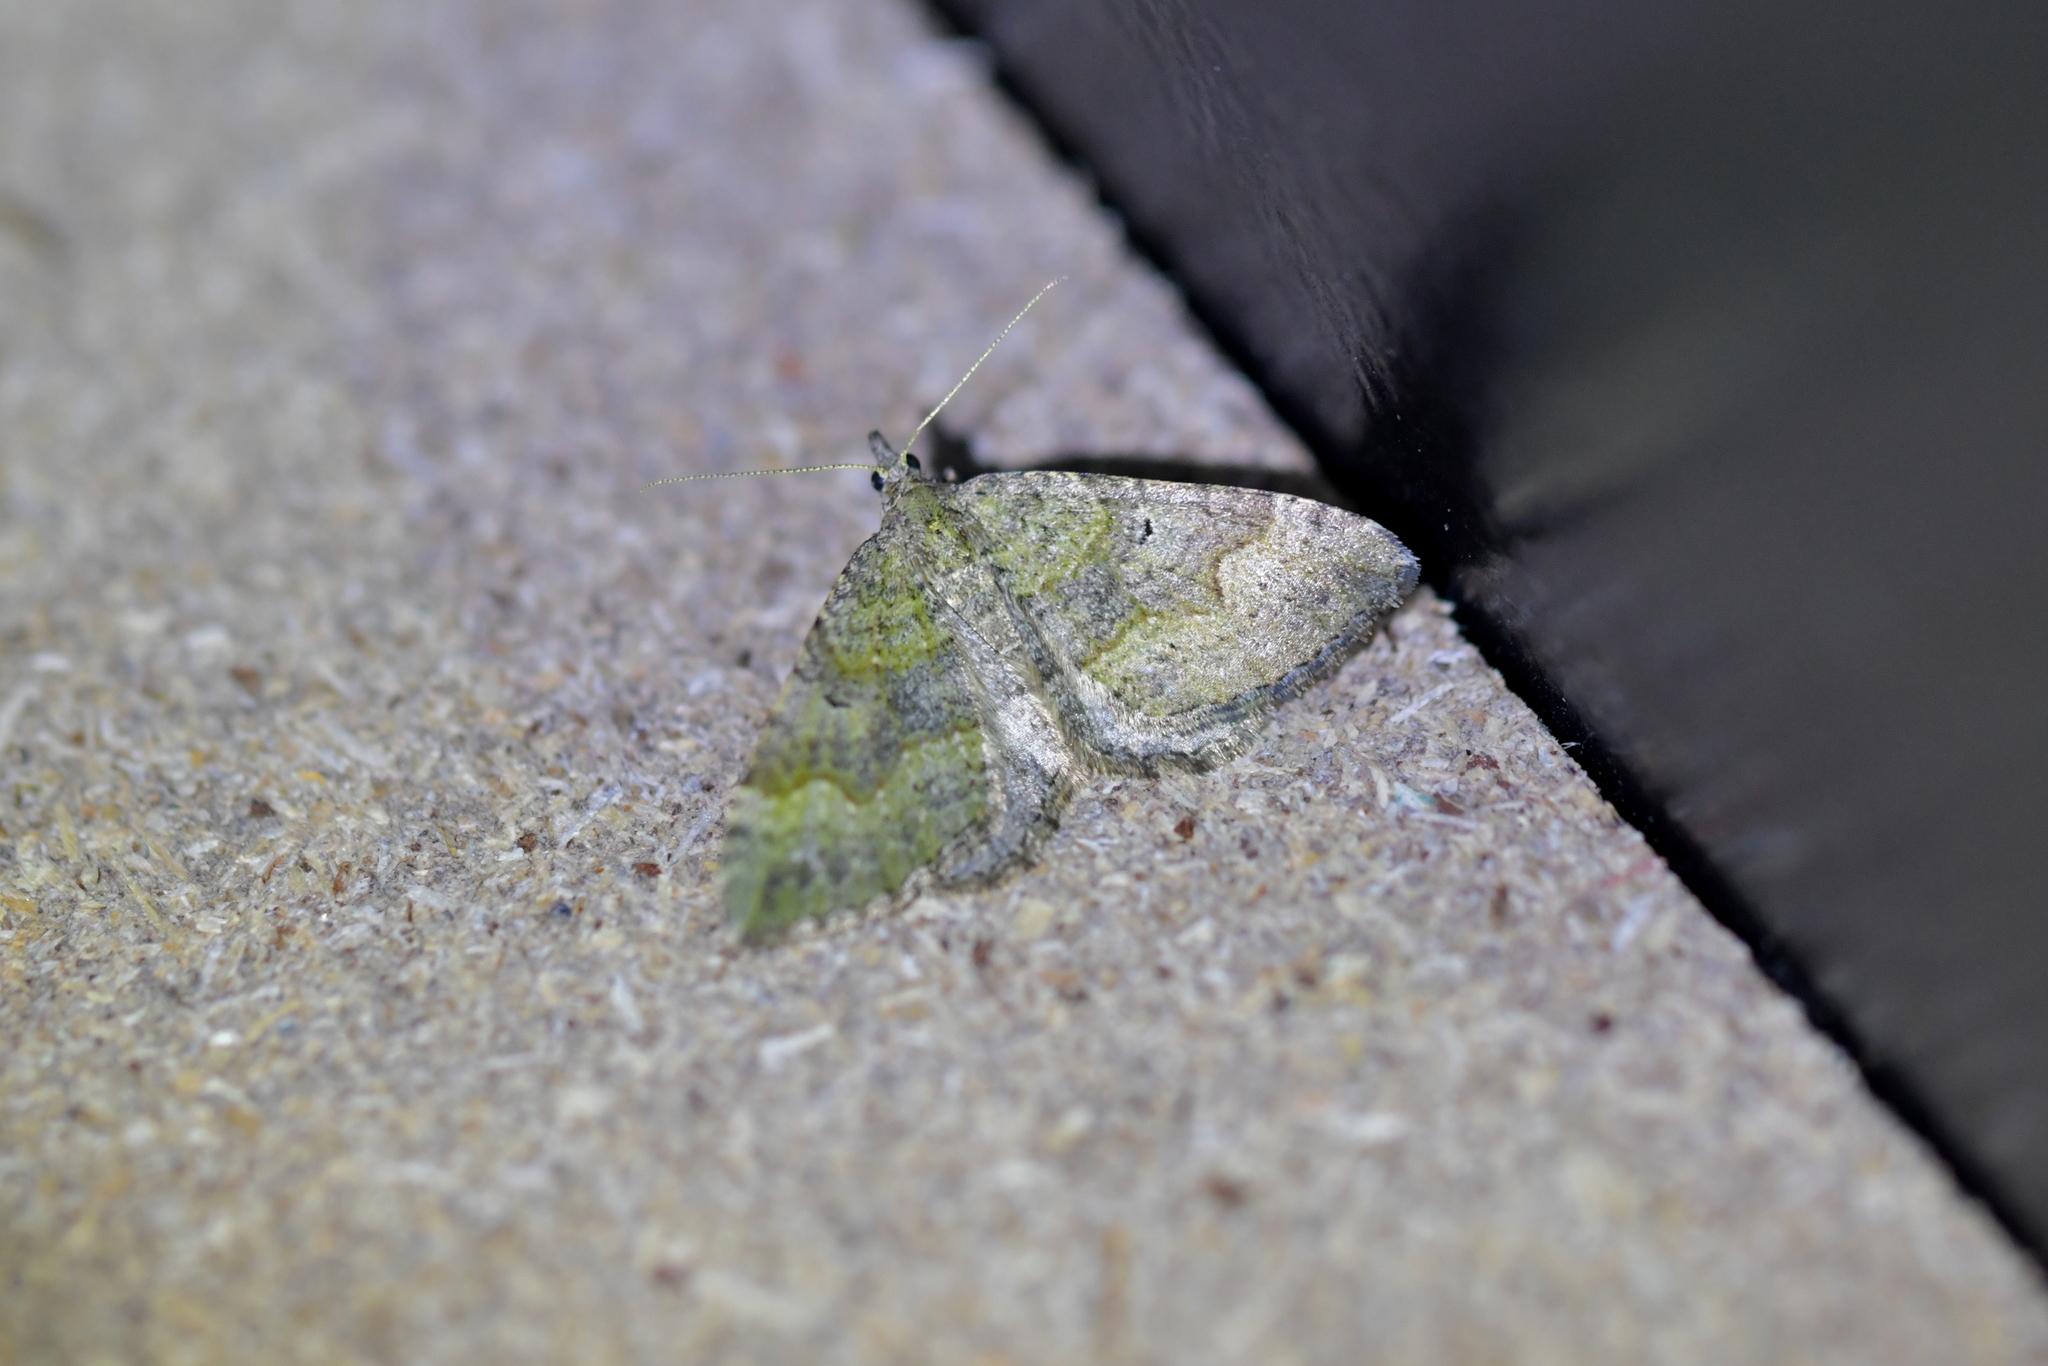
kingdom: Animalia
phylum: Arthropoda
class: Insecta
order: Lepidoptera
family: Geometridae
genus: Epyaxa
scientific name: Epyaxa rosearia
